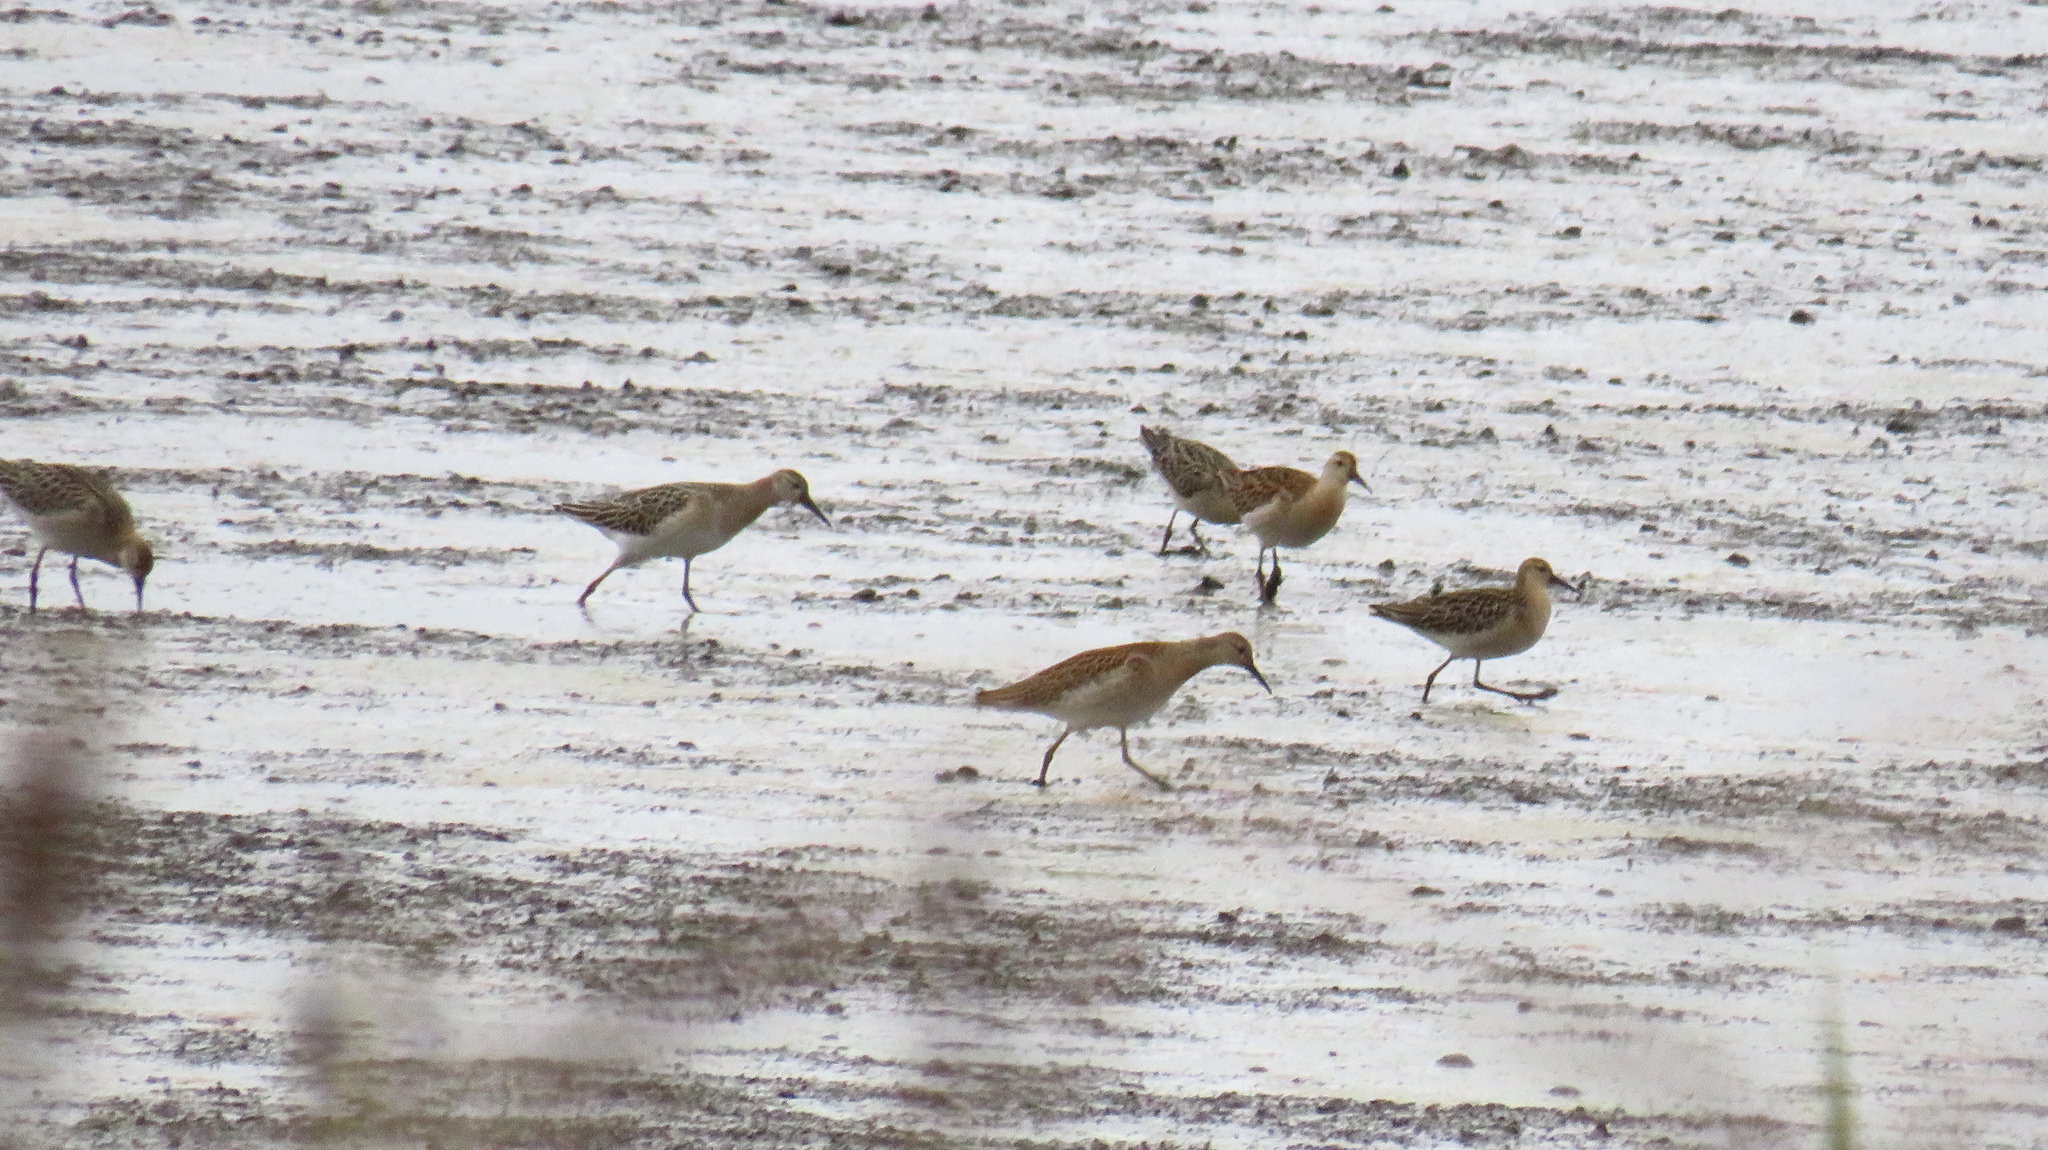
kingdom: Animalia
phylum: Chordata
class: Aves
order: Charadriiformes
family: Scolopacidae
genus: Calidris
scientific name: Calidris pugnax
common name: Ruff
